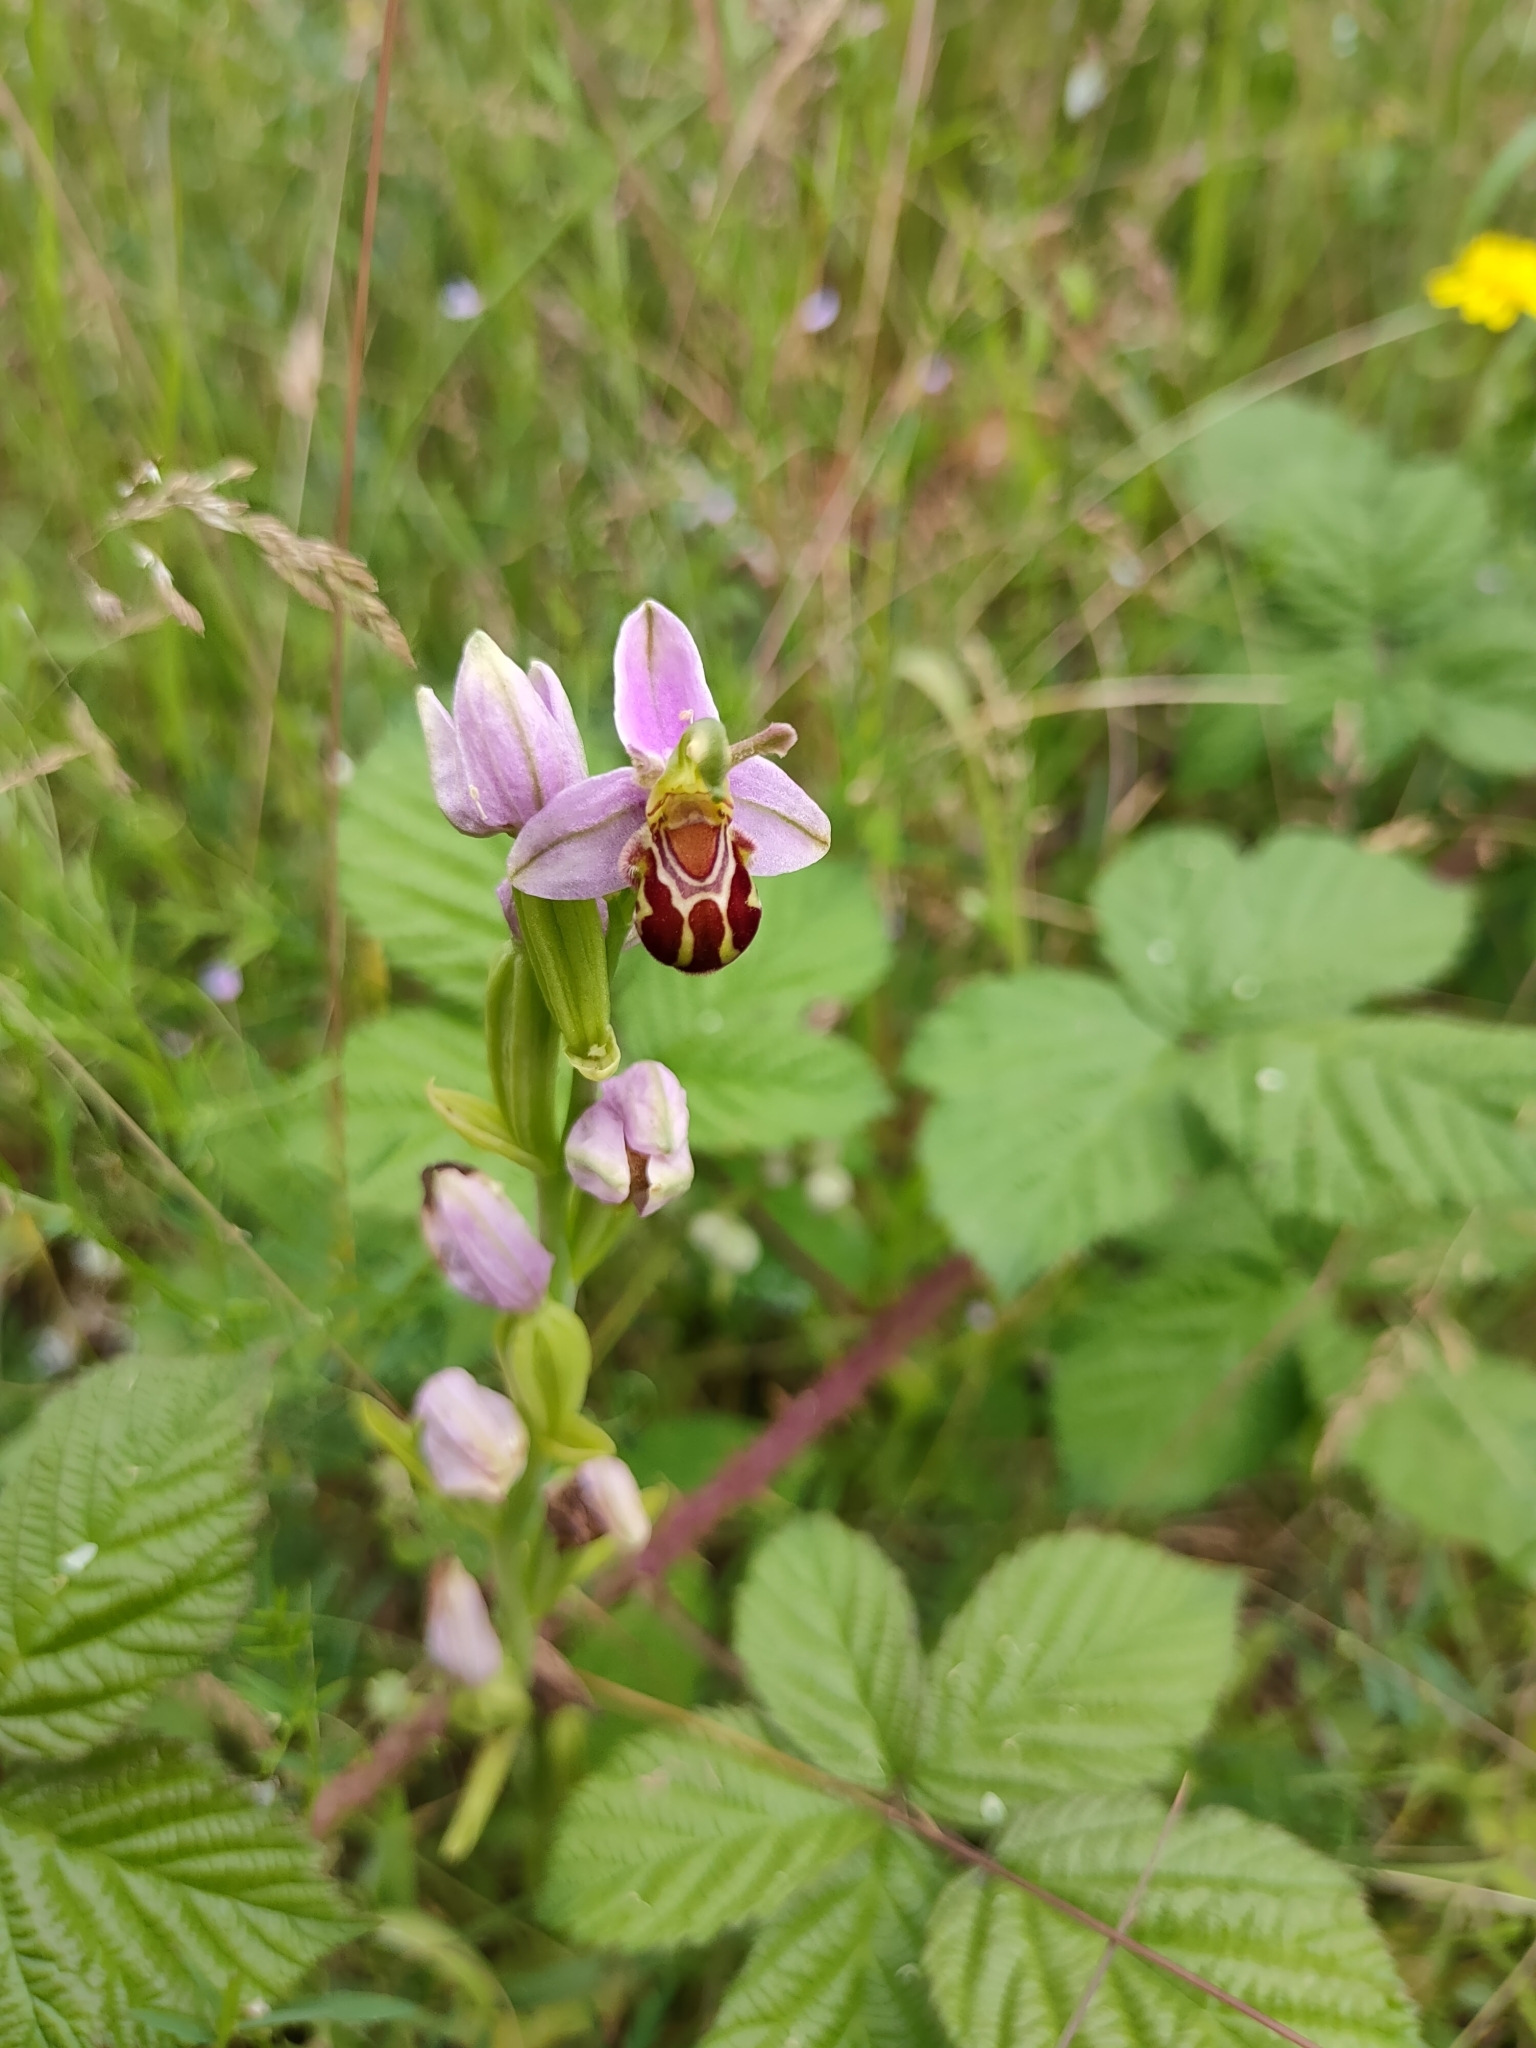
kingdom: Plantae
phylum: Tracheophyta
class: Liliopsida
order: Asparagales
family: Orchidaceae
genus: Ophrys
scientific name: Ophrys apifera
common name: Bee orchid
